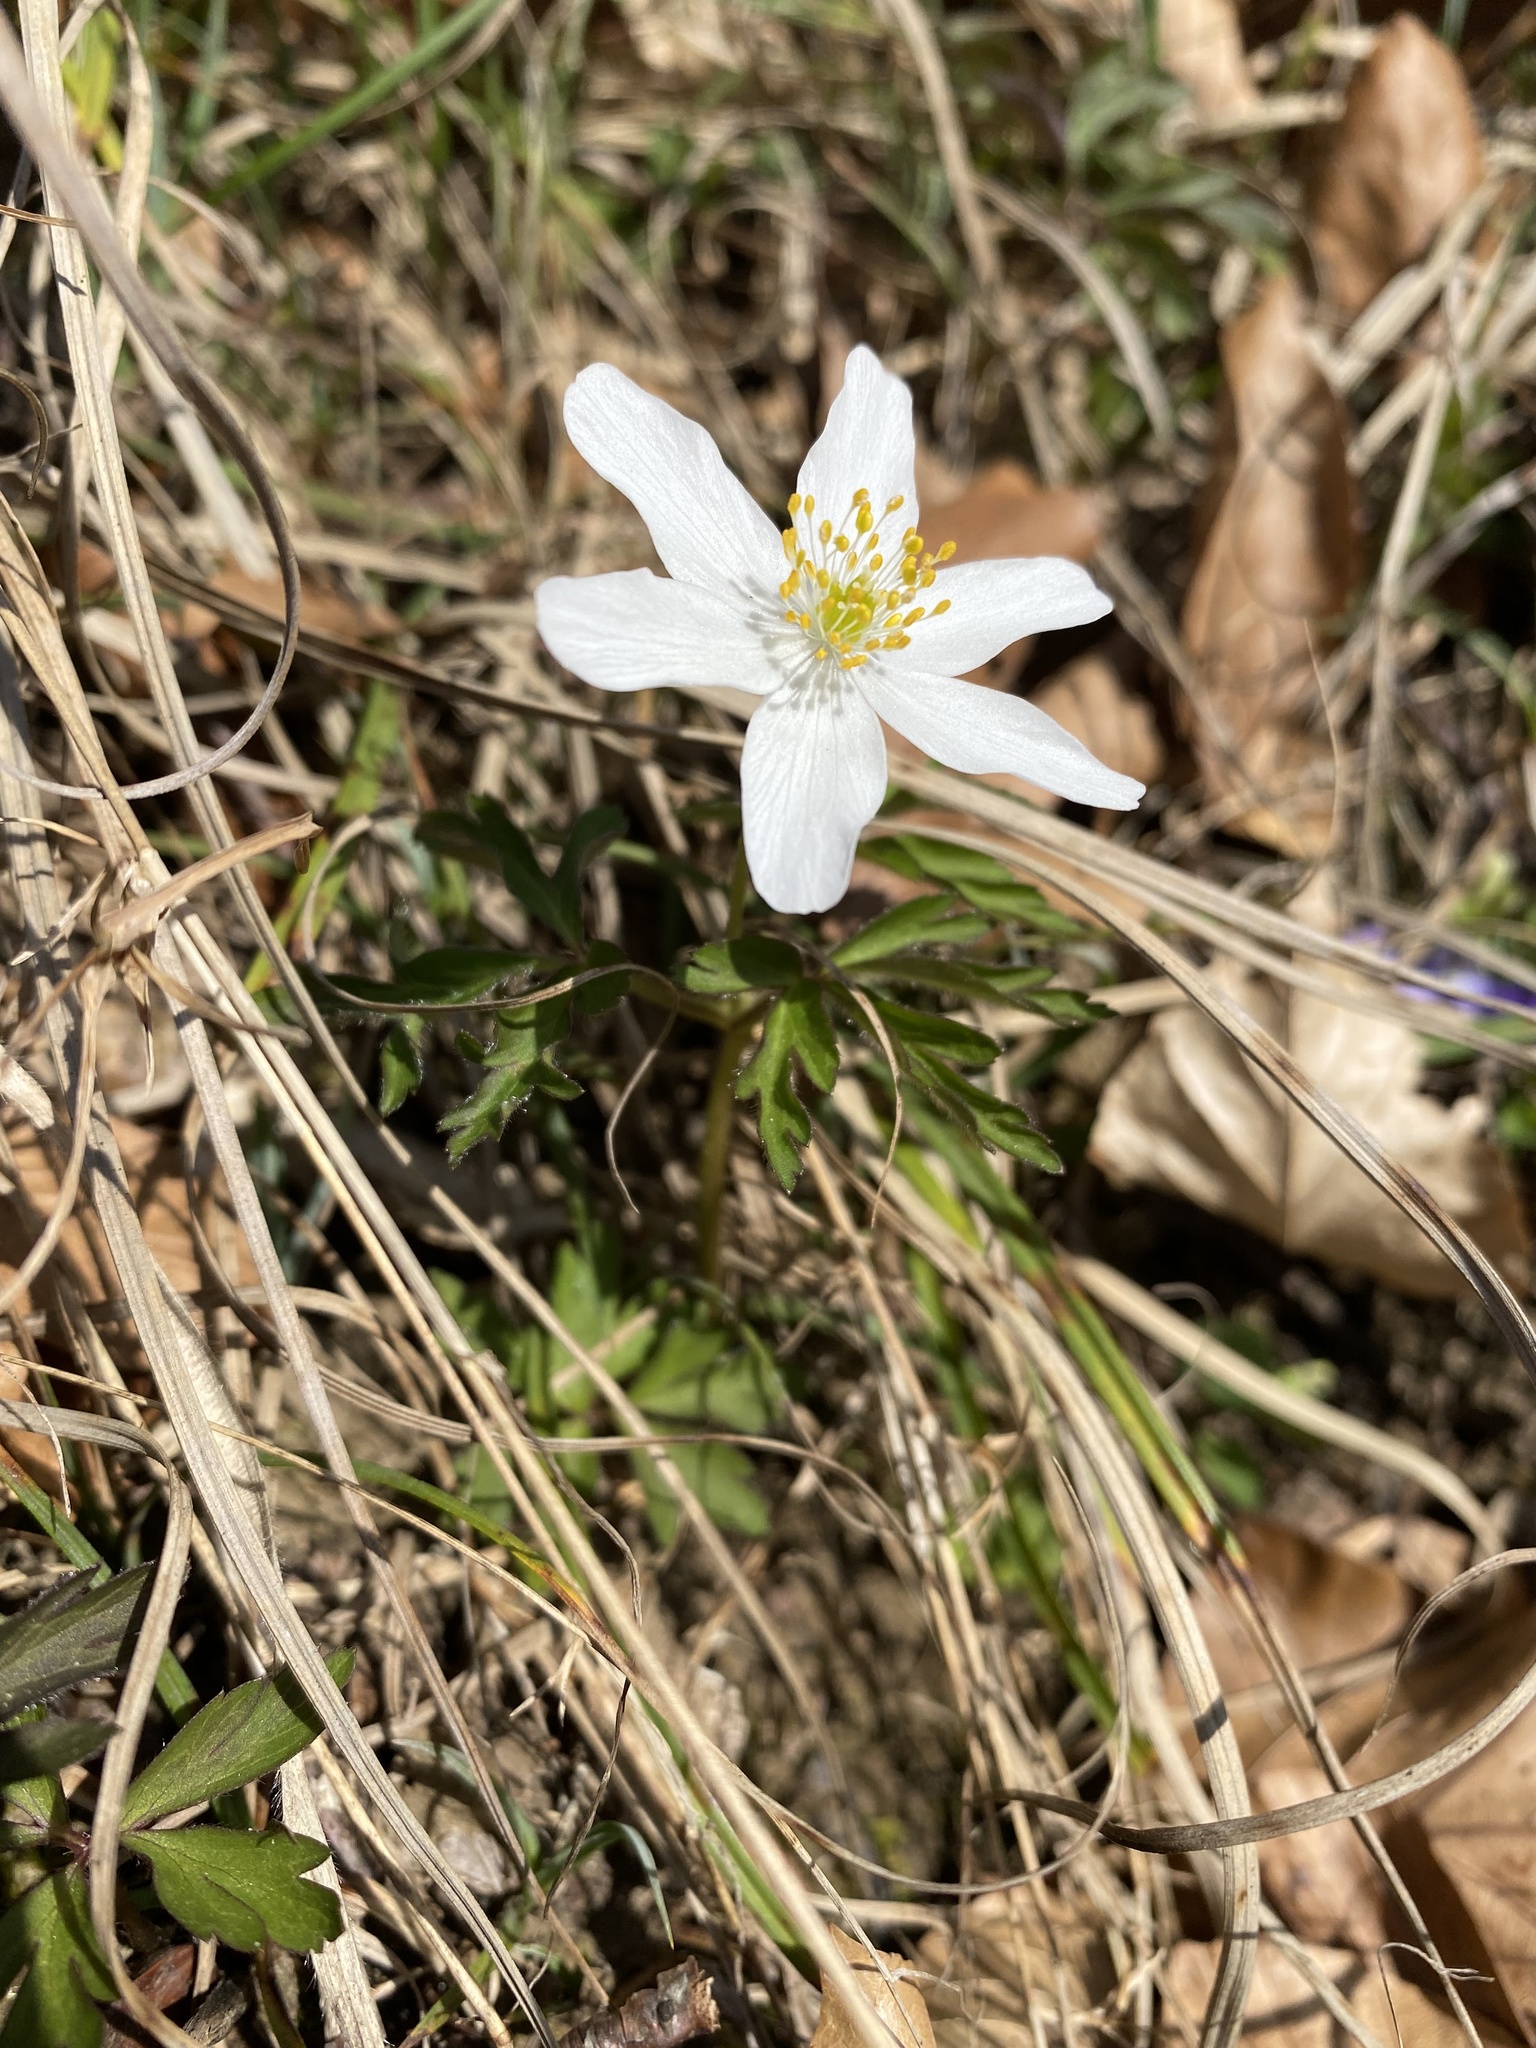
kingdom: Plantae
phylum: Tracheophyta
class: Magnoliopsida
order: Ranunculales
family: Ranunculaceae
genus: Anemone
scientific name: Anemone nemorosa
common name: Wood anemone
